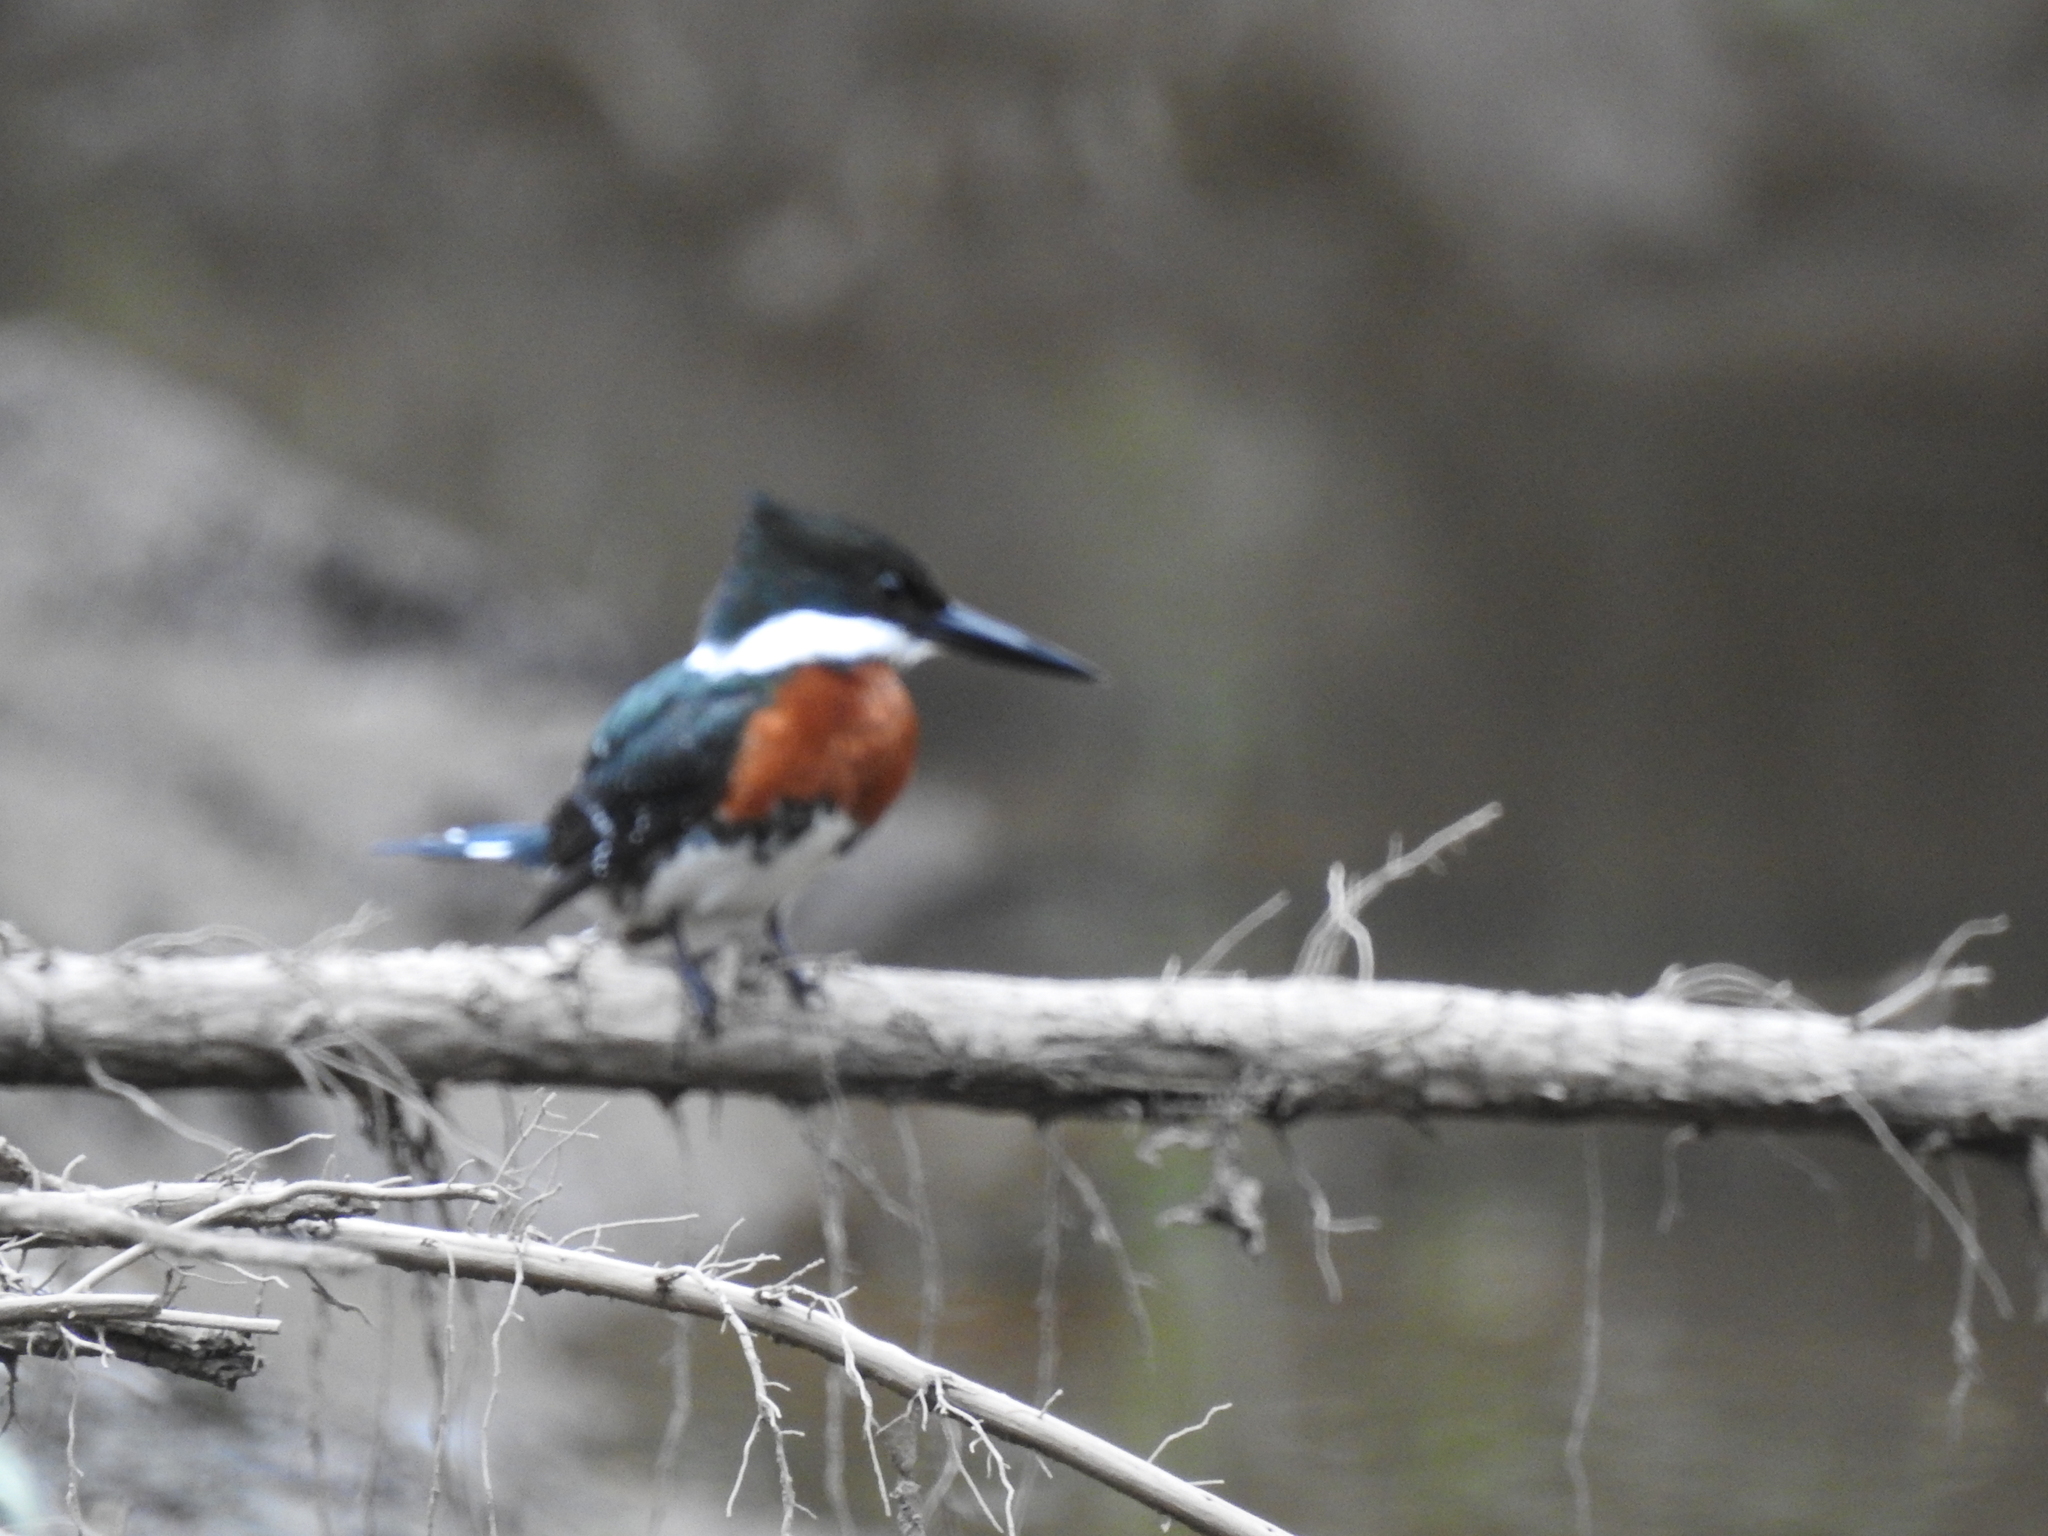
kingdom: Animalia
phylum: Chordata
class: Aves
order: Coraciiformes
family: Alcedinidae
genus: Chloroceryle
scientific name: Chloroceryle americana
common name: Green kingfisher
